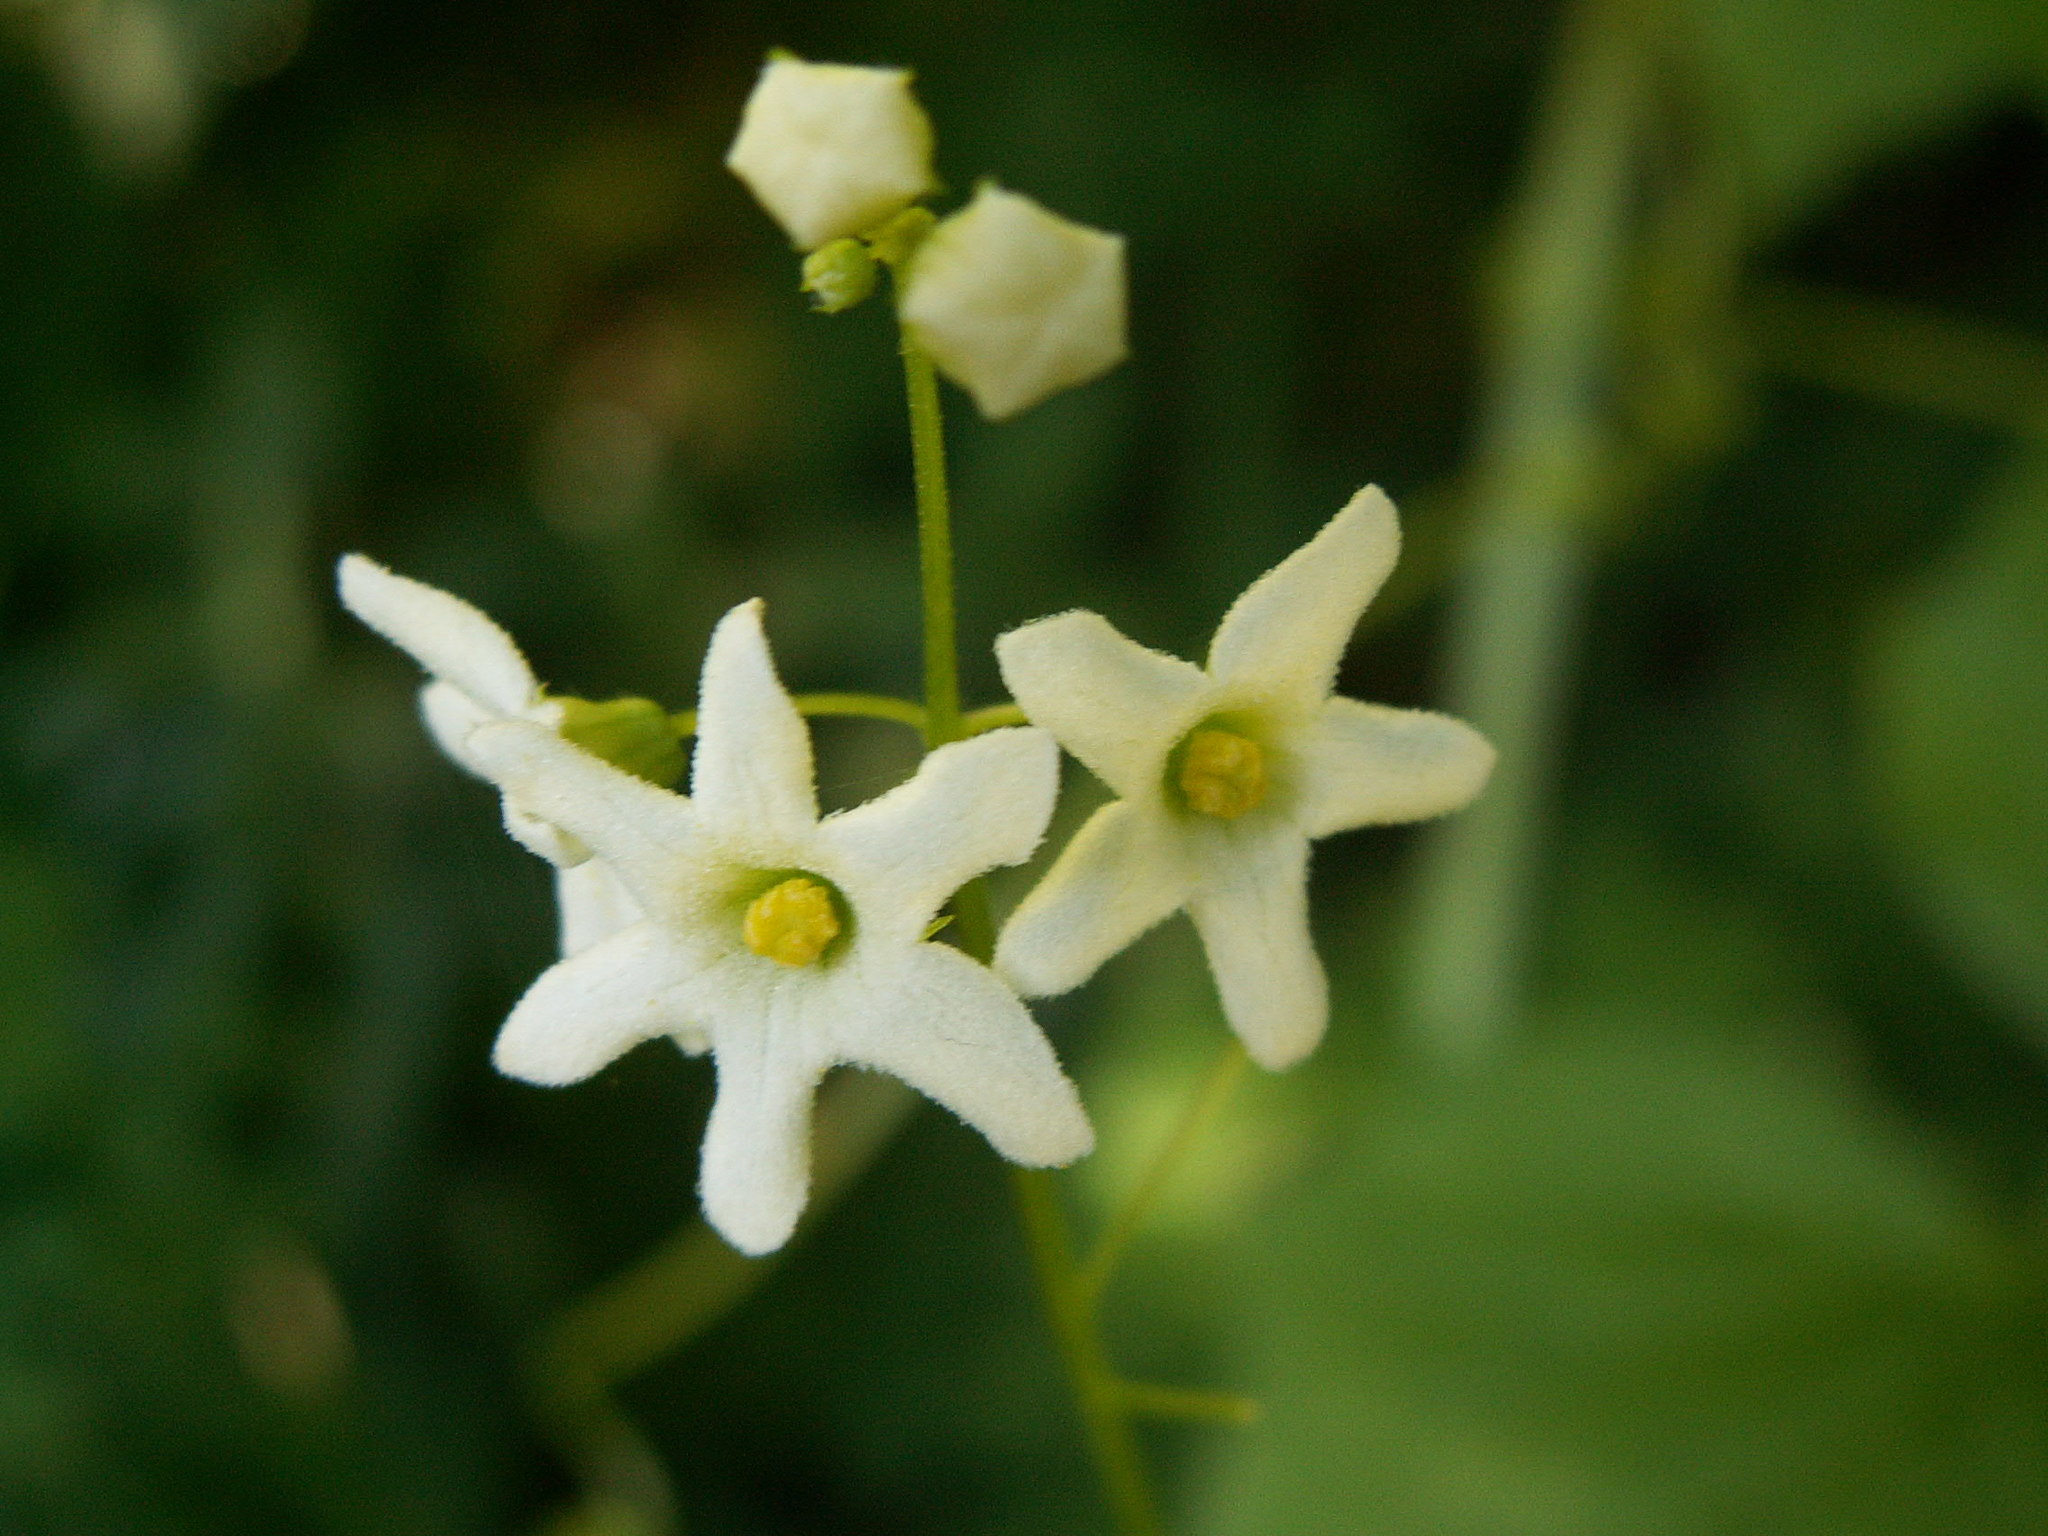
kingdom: Plantae
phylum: Tracheophyta
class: Magnoliopsida
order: Cucurbitales
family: Cucurbitaceae
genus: Marah
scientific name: Marah oregana
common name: Coastal manroot
